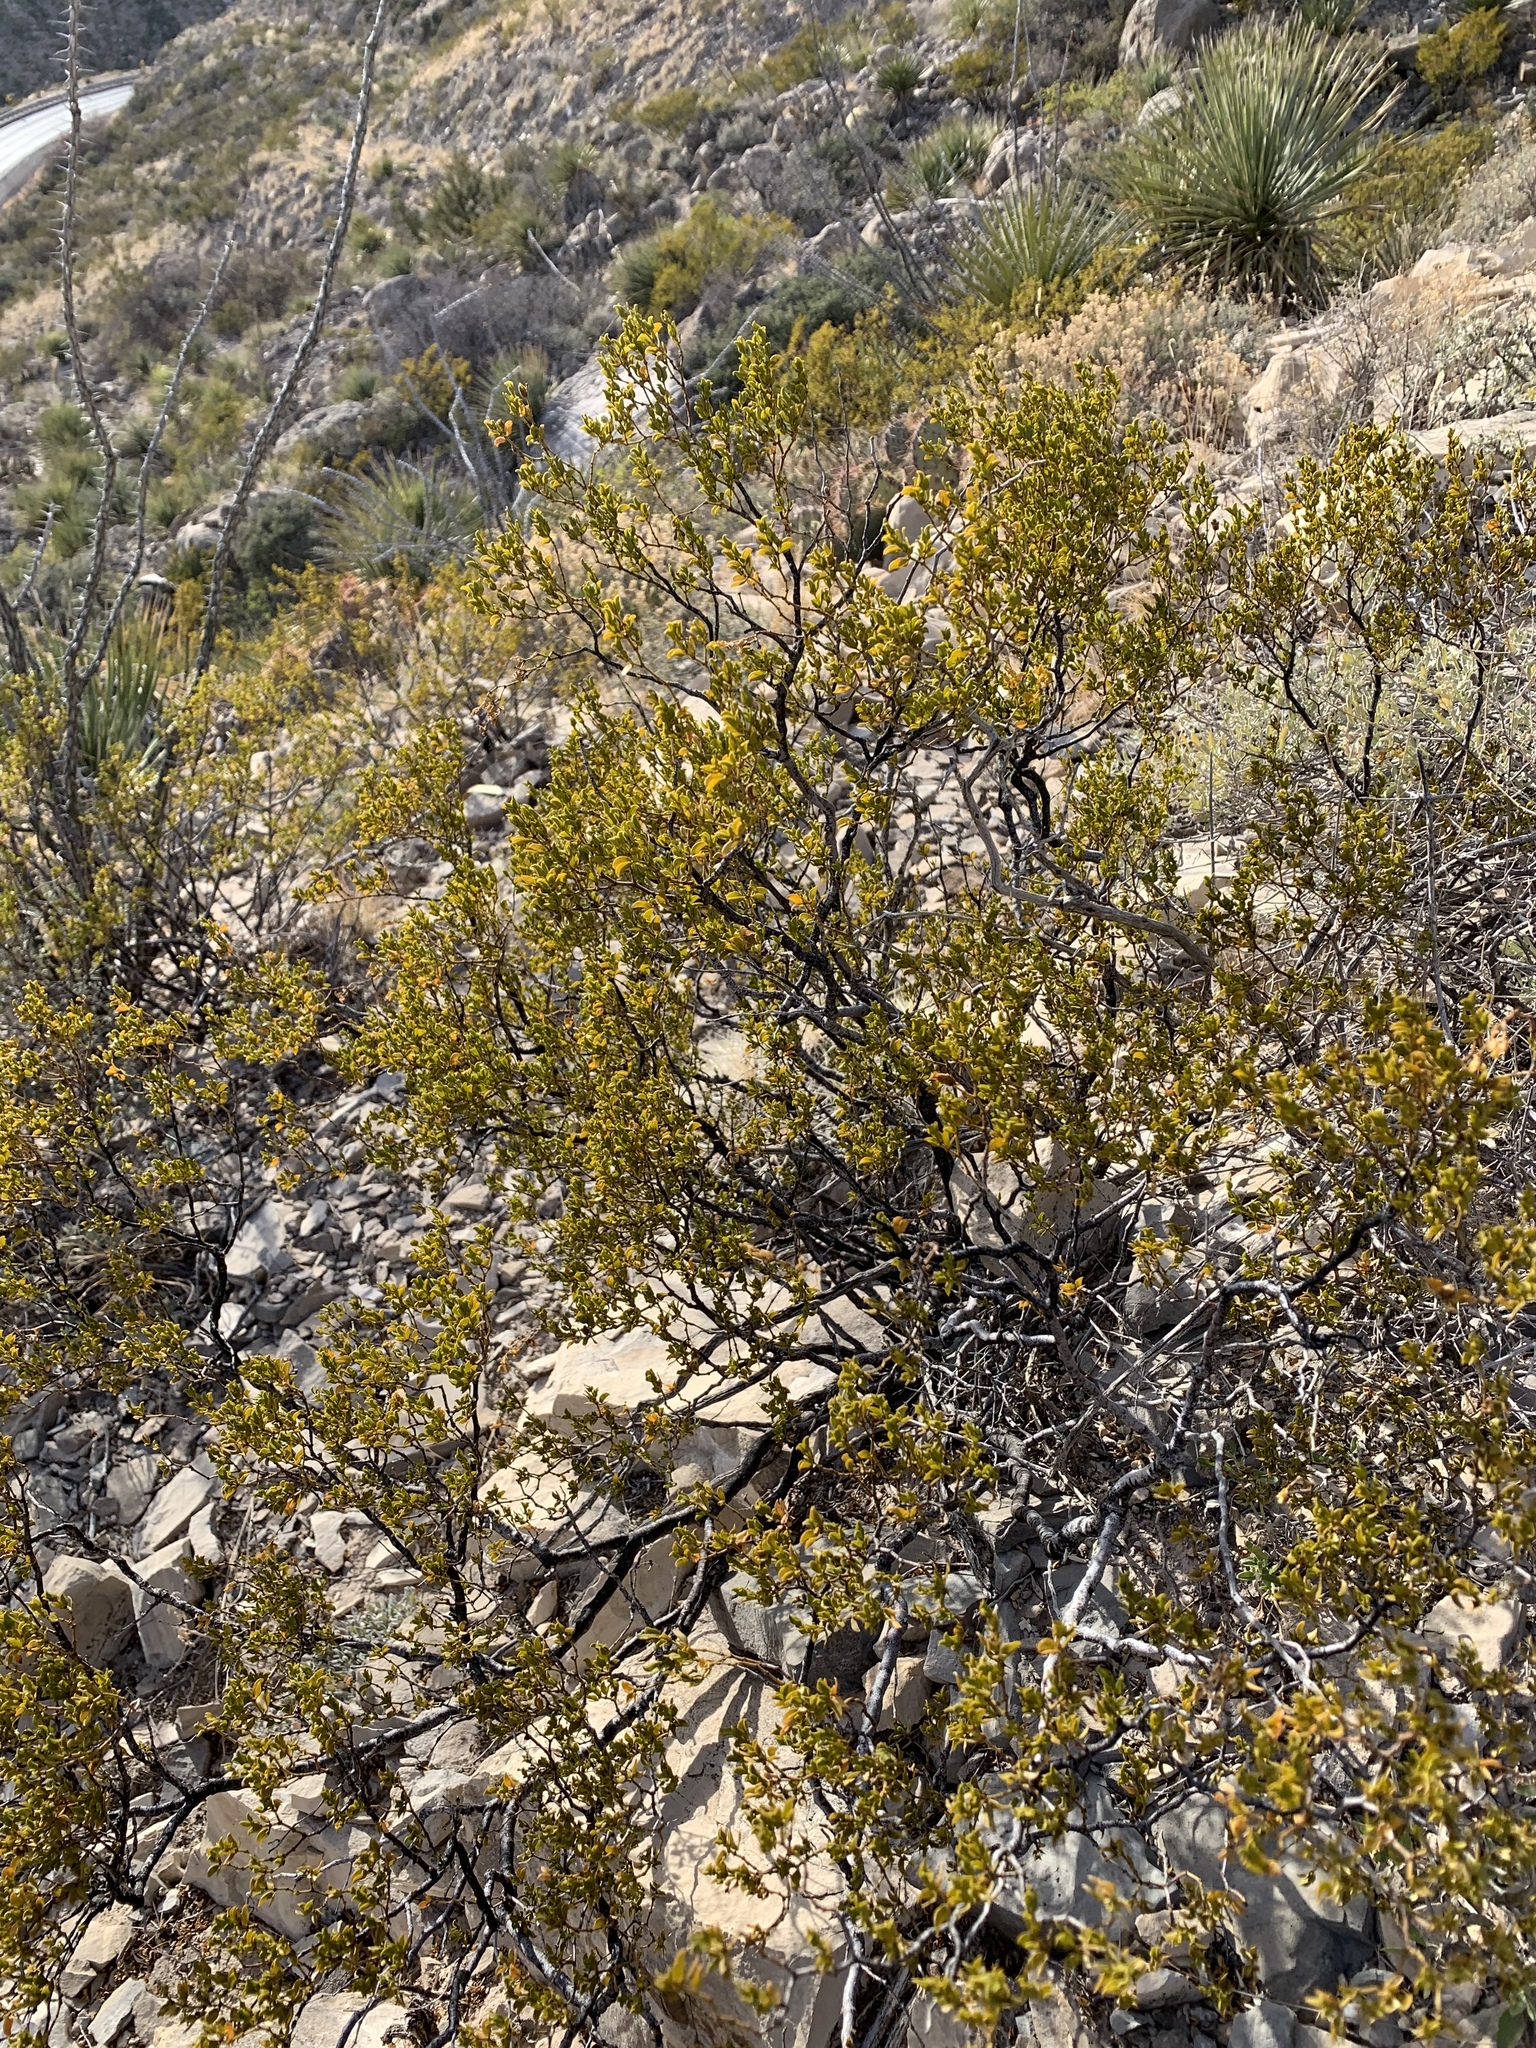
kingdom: Plantae
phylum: Tracheophyta
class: Magnoliopsida
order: Zygophyllales
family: Zygophyllaceae
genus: Larrea
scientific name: Larrea tridentata
